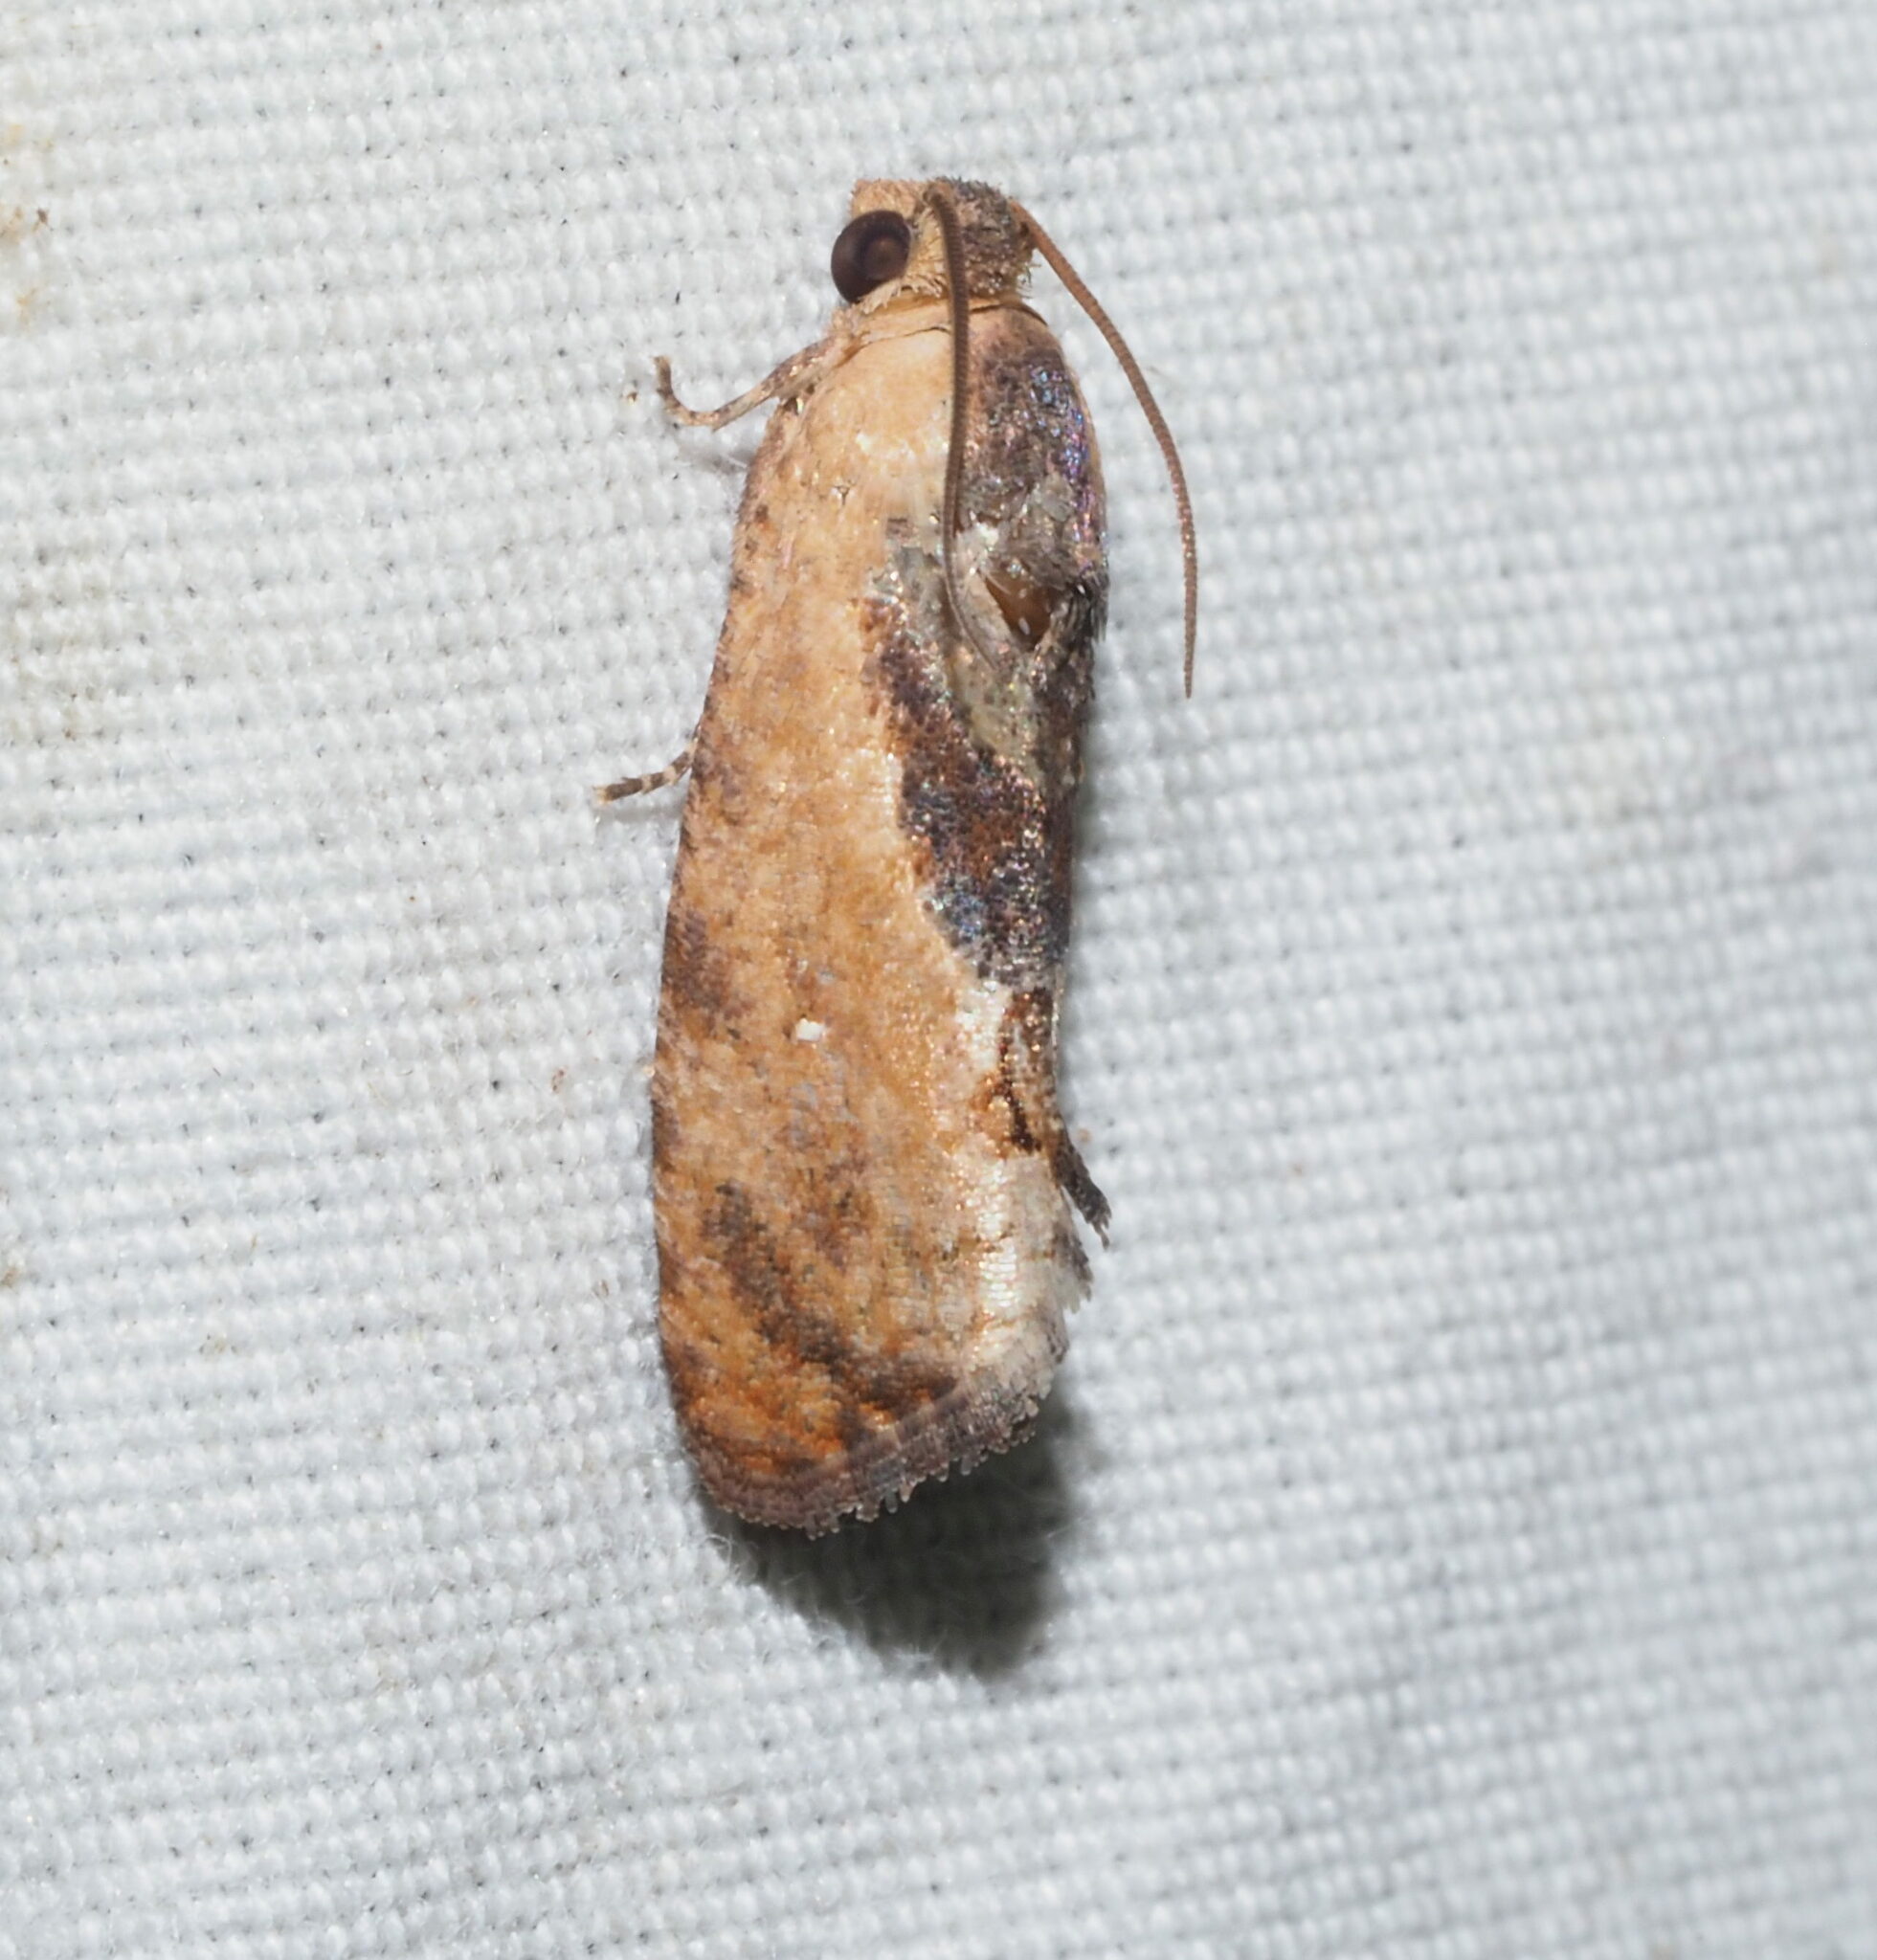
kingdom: Animalia
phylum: Arthropoda
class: Insecta
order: Lepidoptera
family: Tortricidae
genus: Cryptophlebia
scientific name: Cryptophlebia ombrodelta
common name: Litchi fruit moth
